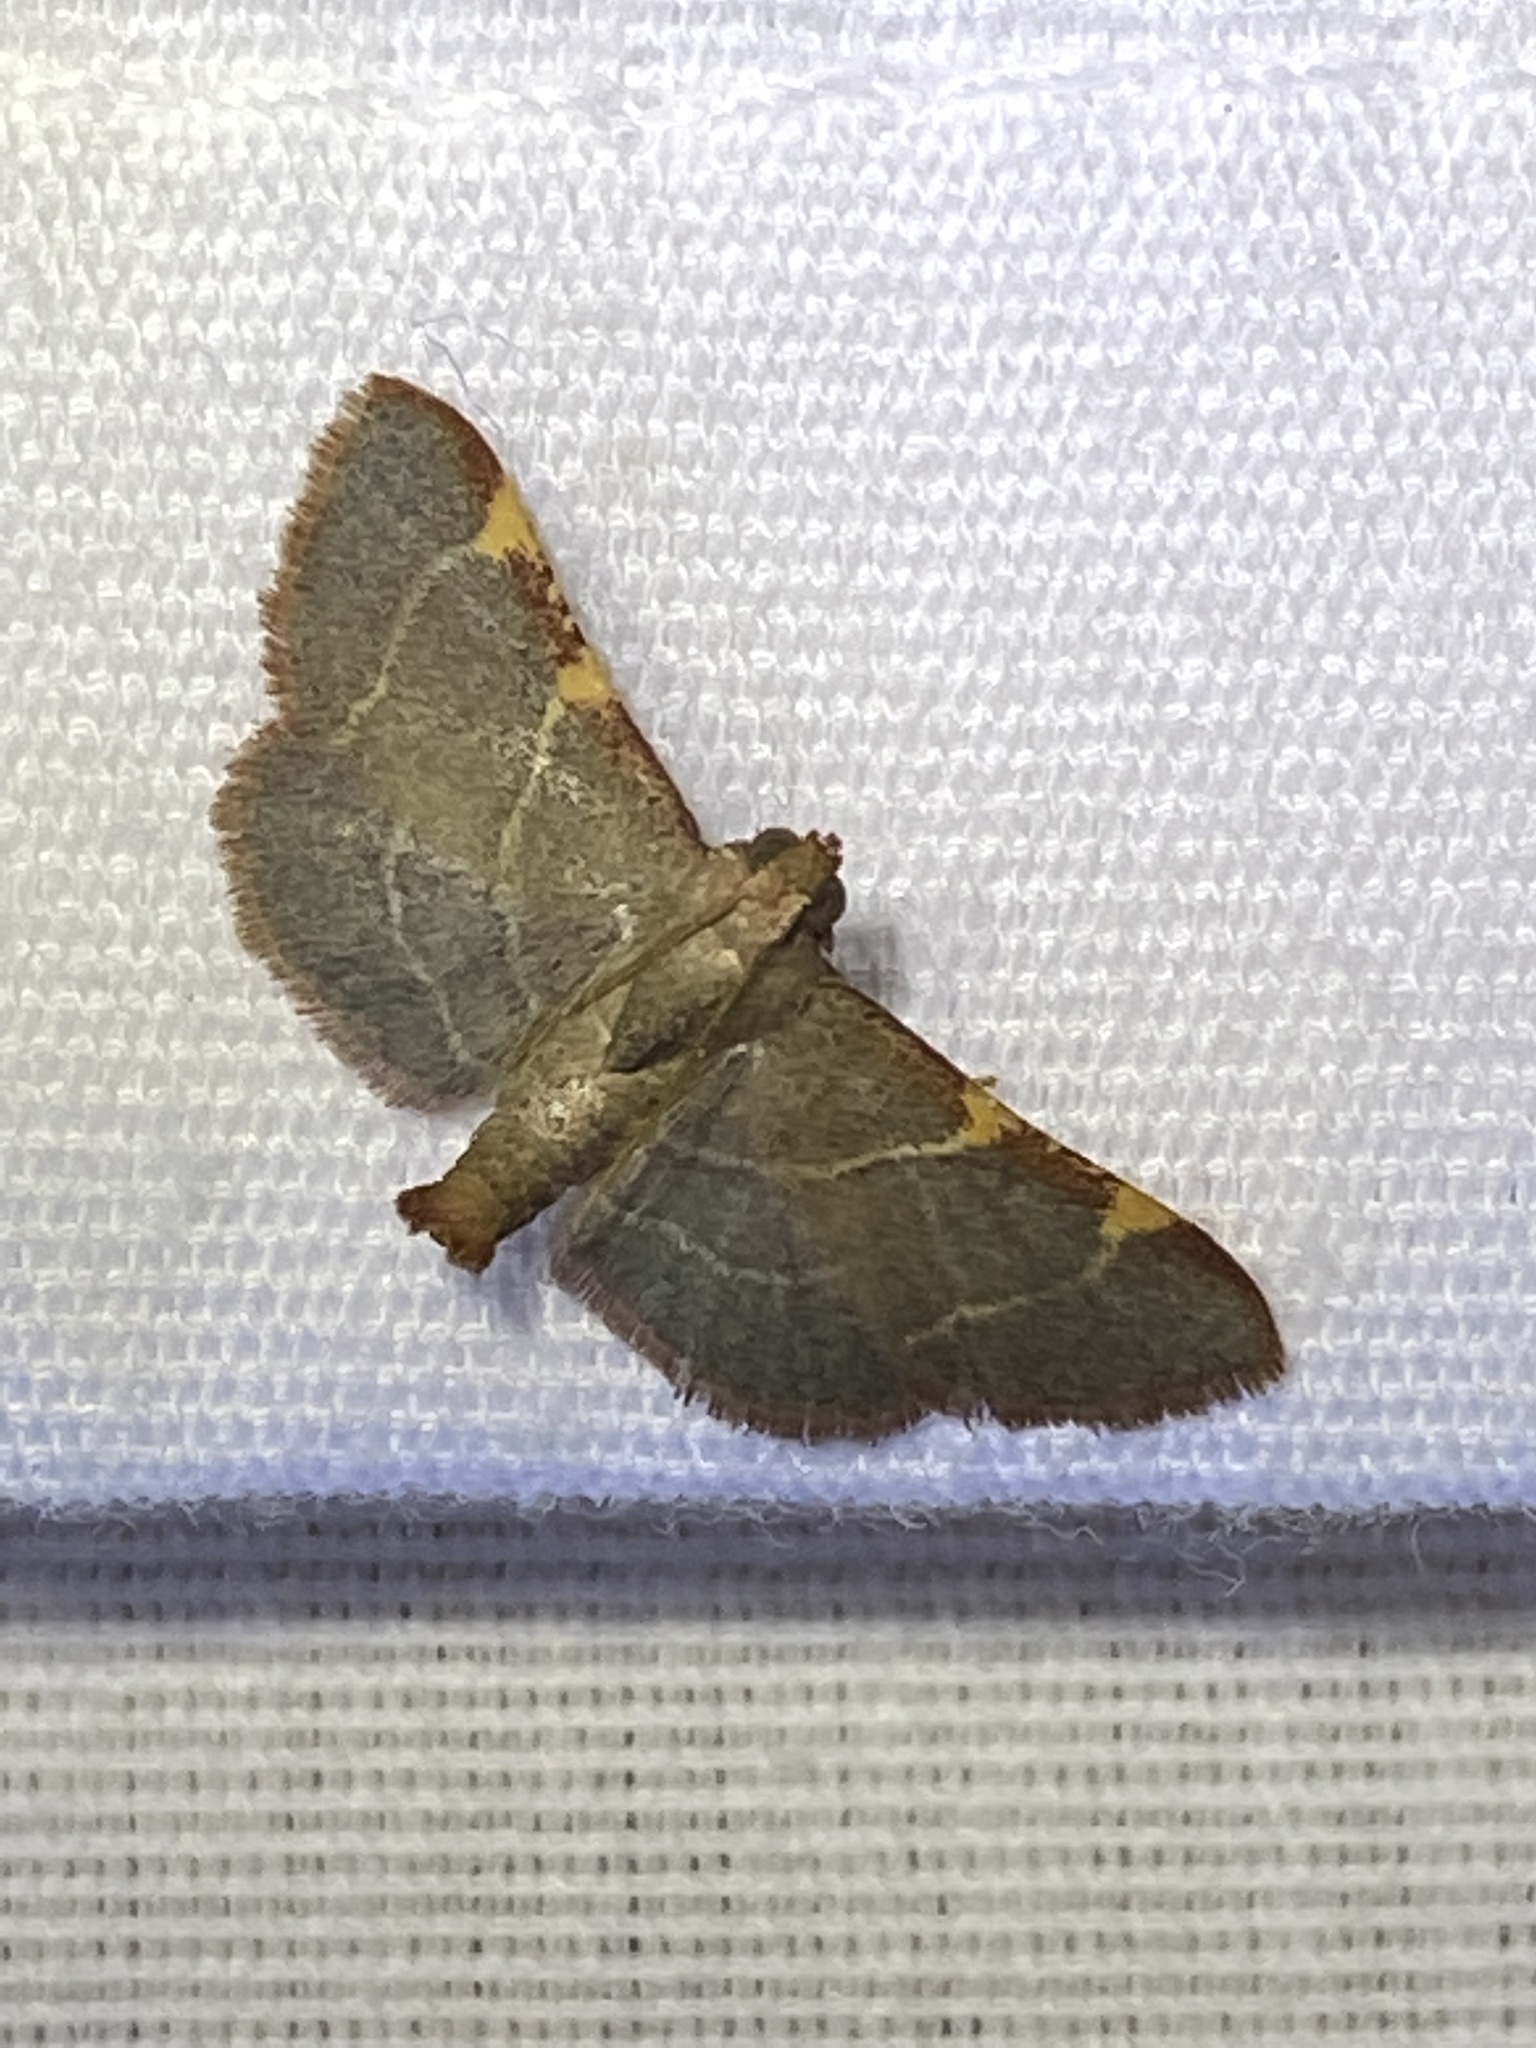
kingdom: Animalia
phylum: Arthropoda
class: Insecta
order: Lepidoptera
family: Pyralidae
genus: Hypsopygia
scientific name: Hypsopygia binodulalis
